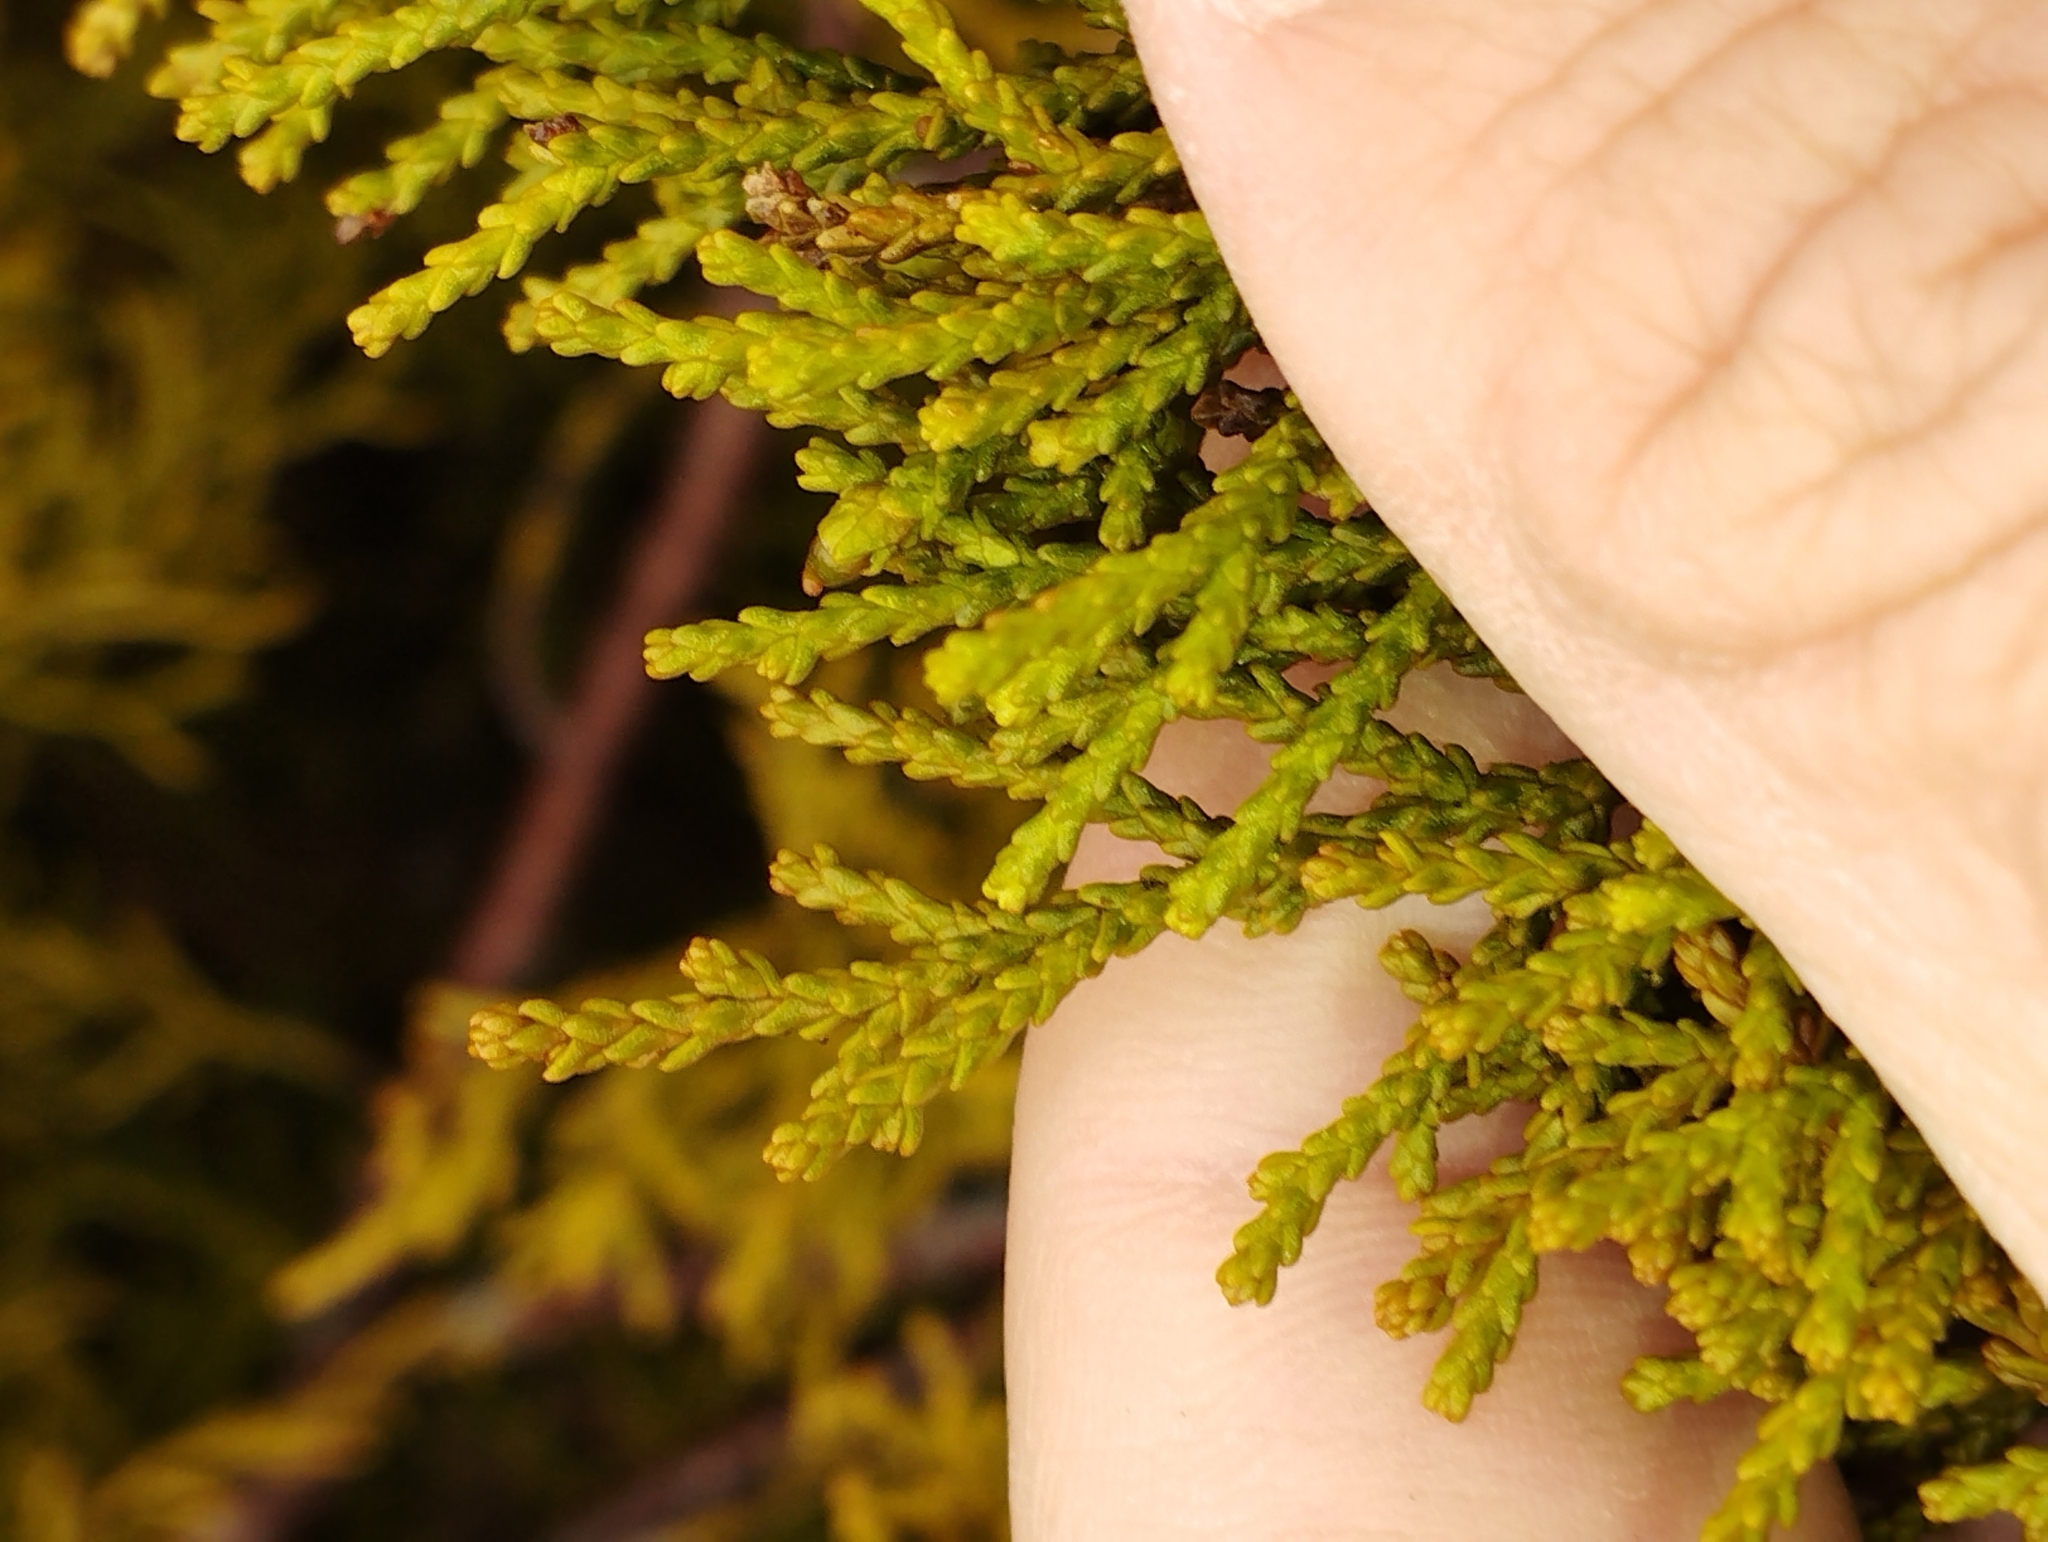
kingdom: Plantae
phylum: Tracheophyta
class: Pinopsida
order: Pinales
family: Podocarpaceae
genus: Lepidothamnus
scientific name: Lepidothamnus intermedius
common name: Yellow silver pine
